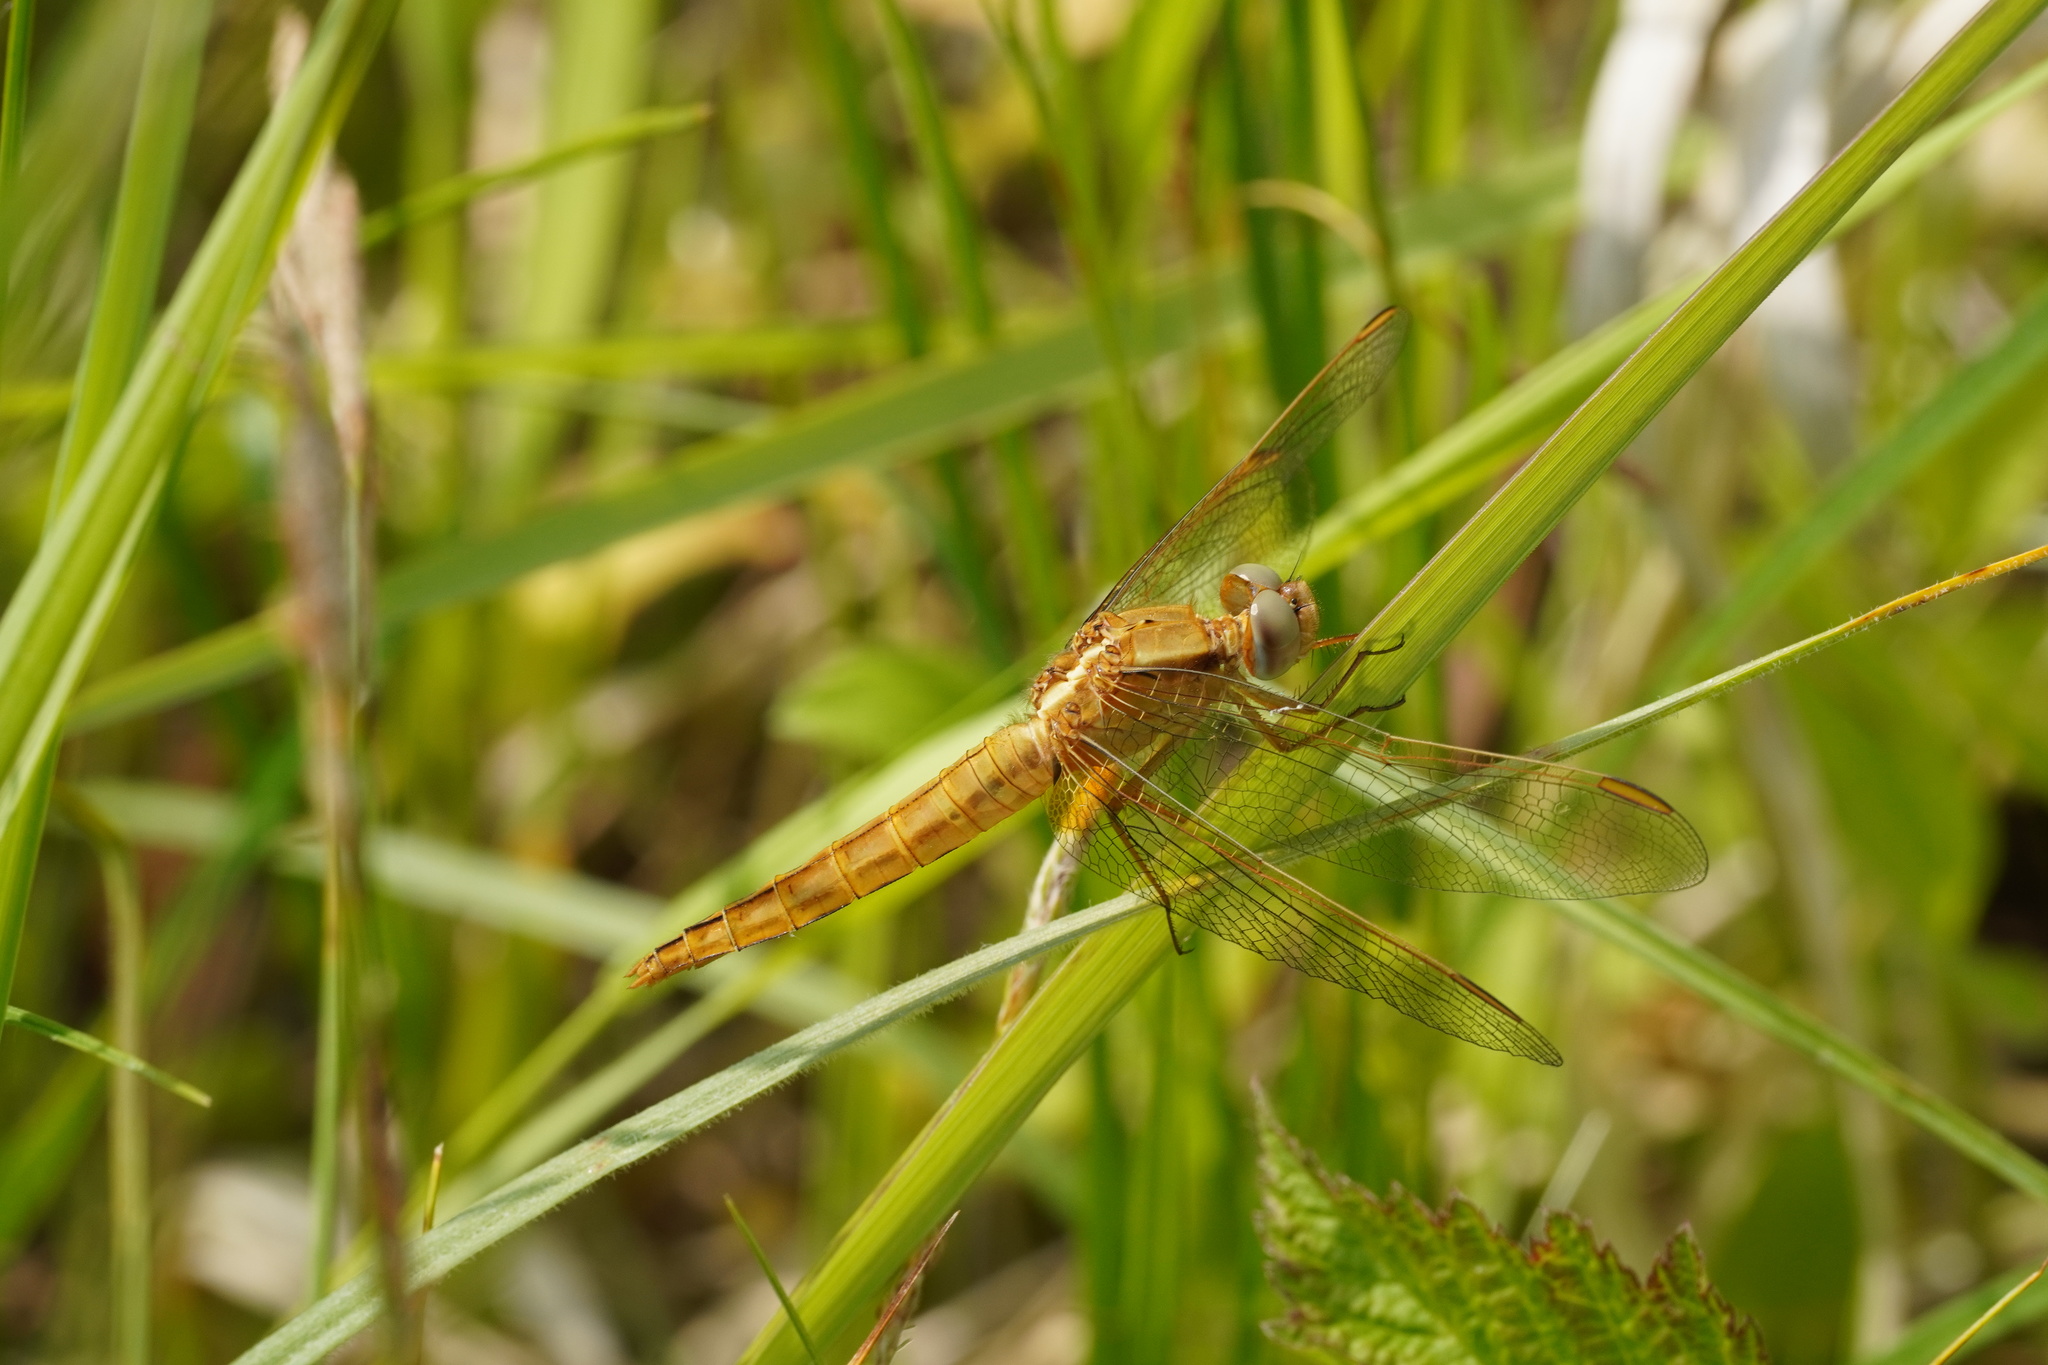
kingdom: Animalia
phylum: Arthropoda
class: Insecta
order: Odonata
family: Libellulidae
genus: Crocothemis
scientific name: Crocothemis erythraea
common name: Scarlet dragonfly
